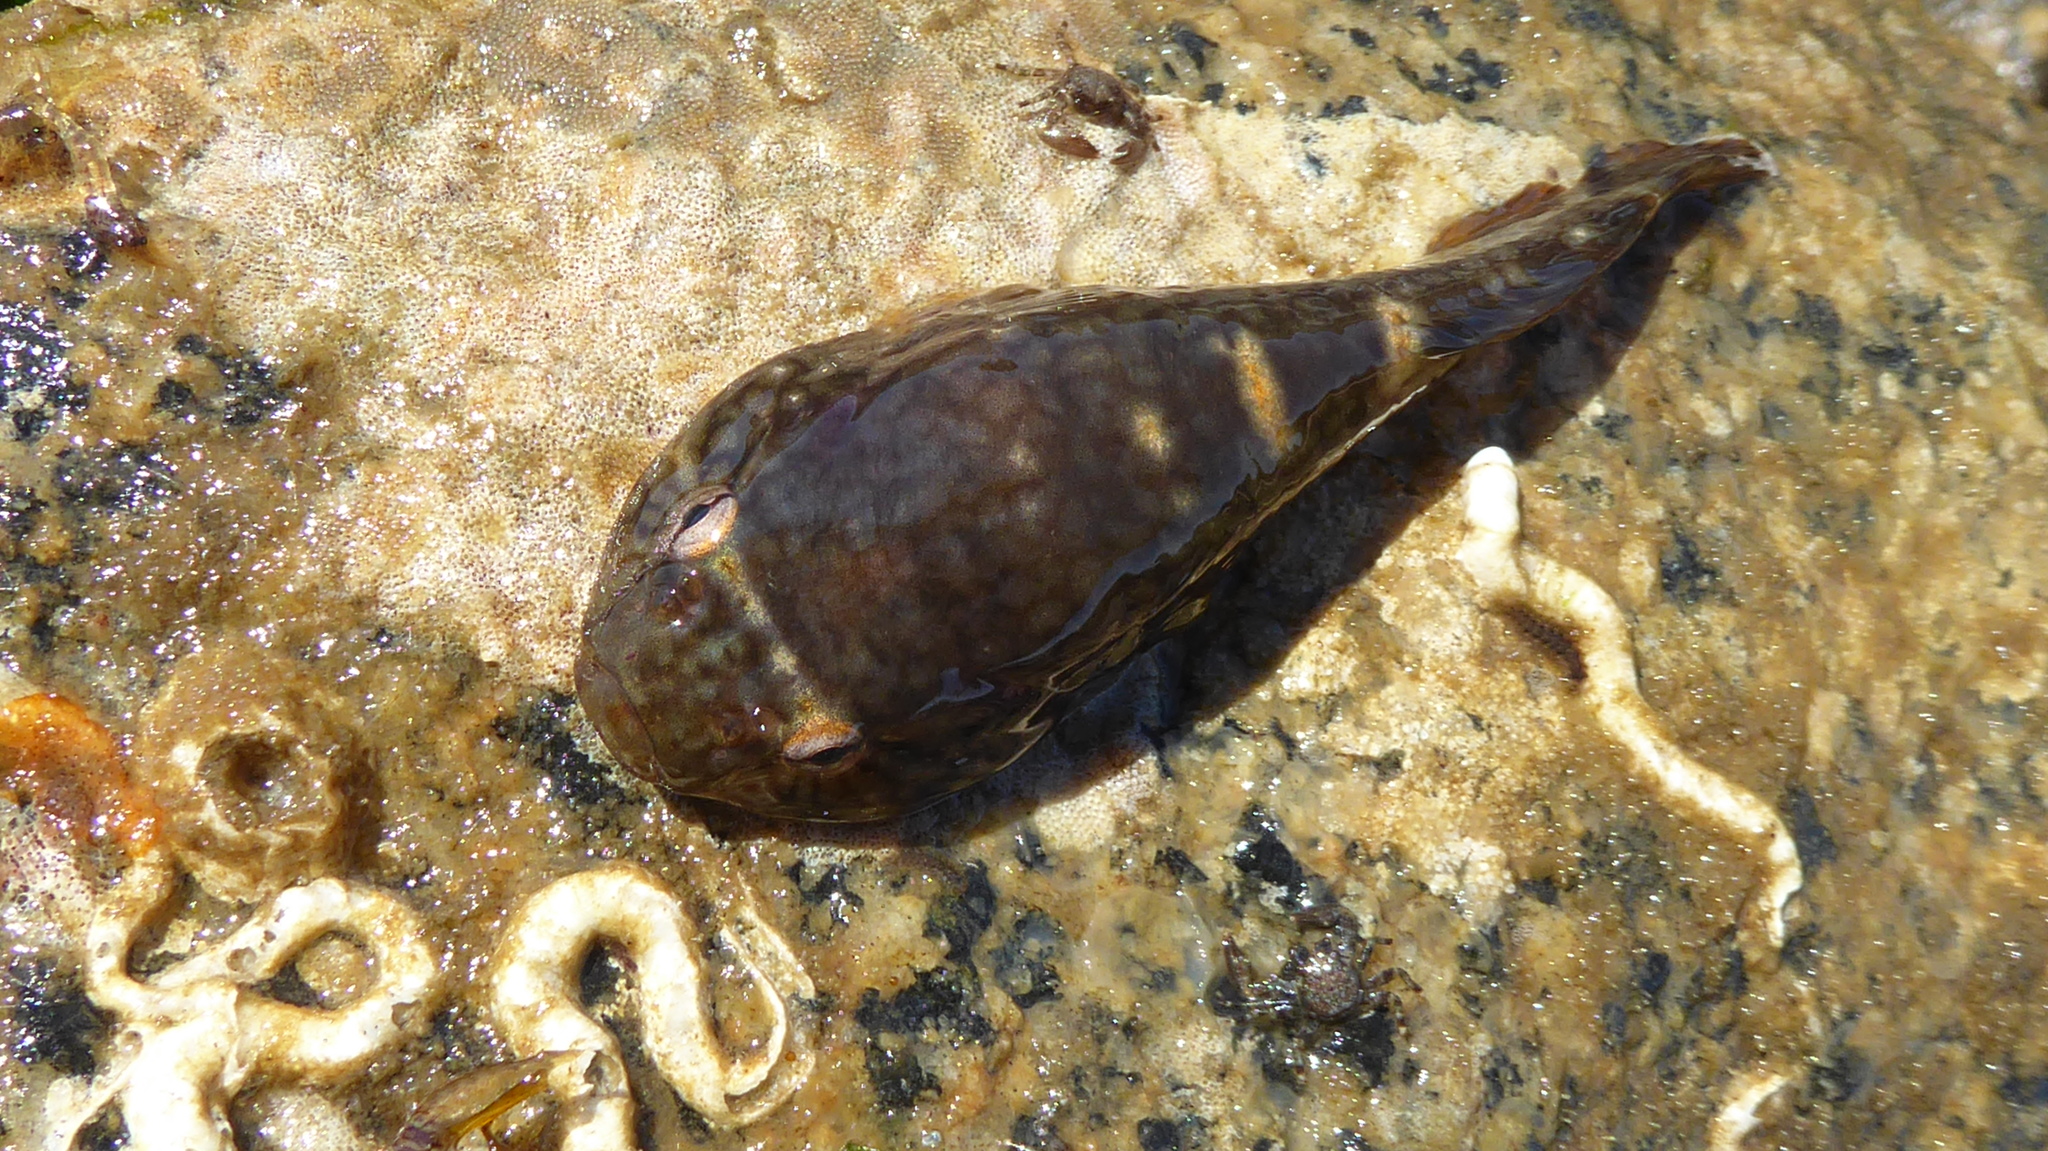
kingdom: Animalia
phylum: Chordata
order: Gobiesociformes
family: Gobiesocidae
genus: Gobiesox
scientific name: Gobiesox maeandricus
